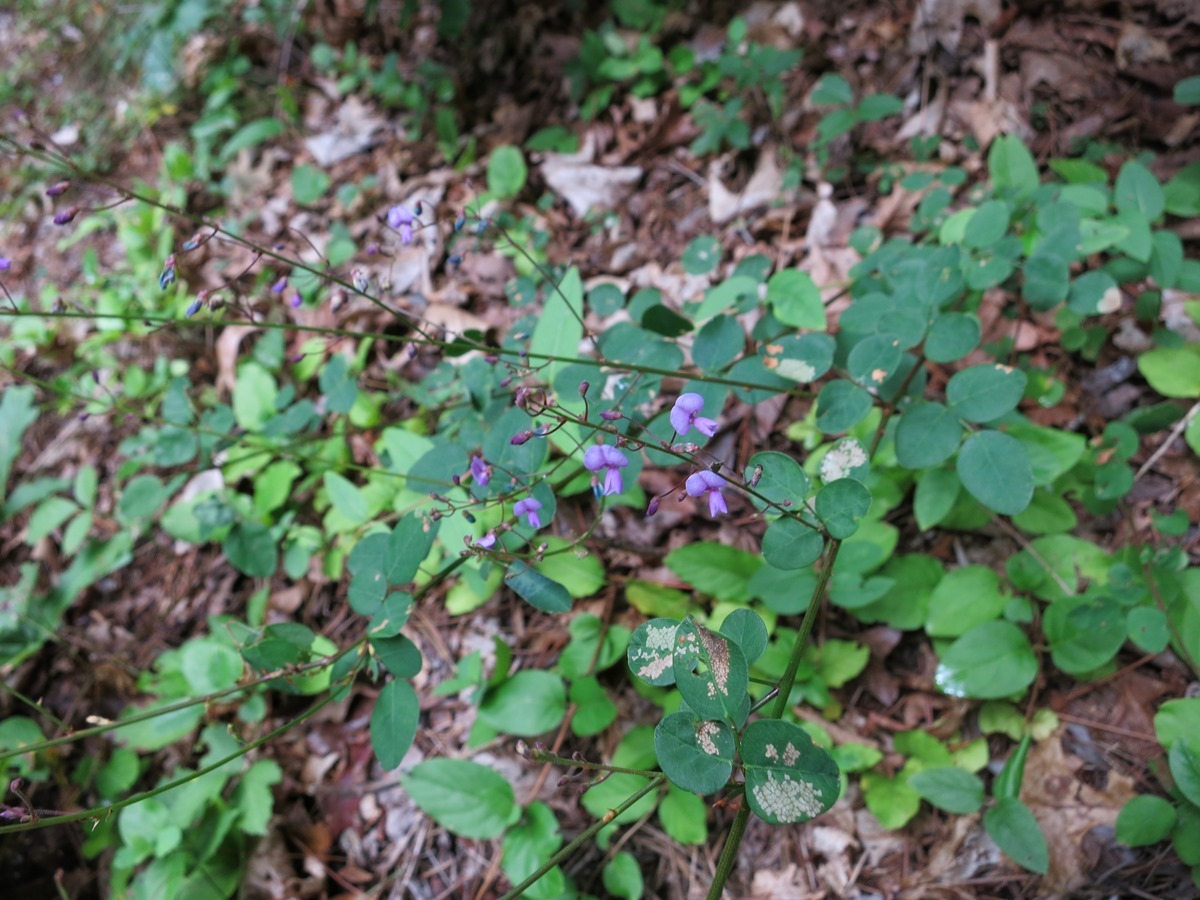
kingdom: Plantae
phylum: Tracheophyta
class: Magnoliopsida
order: Fabales
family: Fabaceae
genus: Desmodium
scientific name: Desmodium marilandicum
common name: Maryland tick-trefoil
